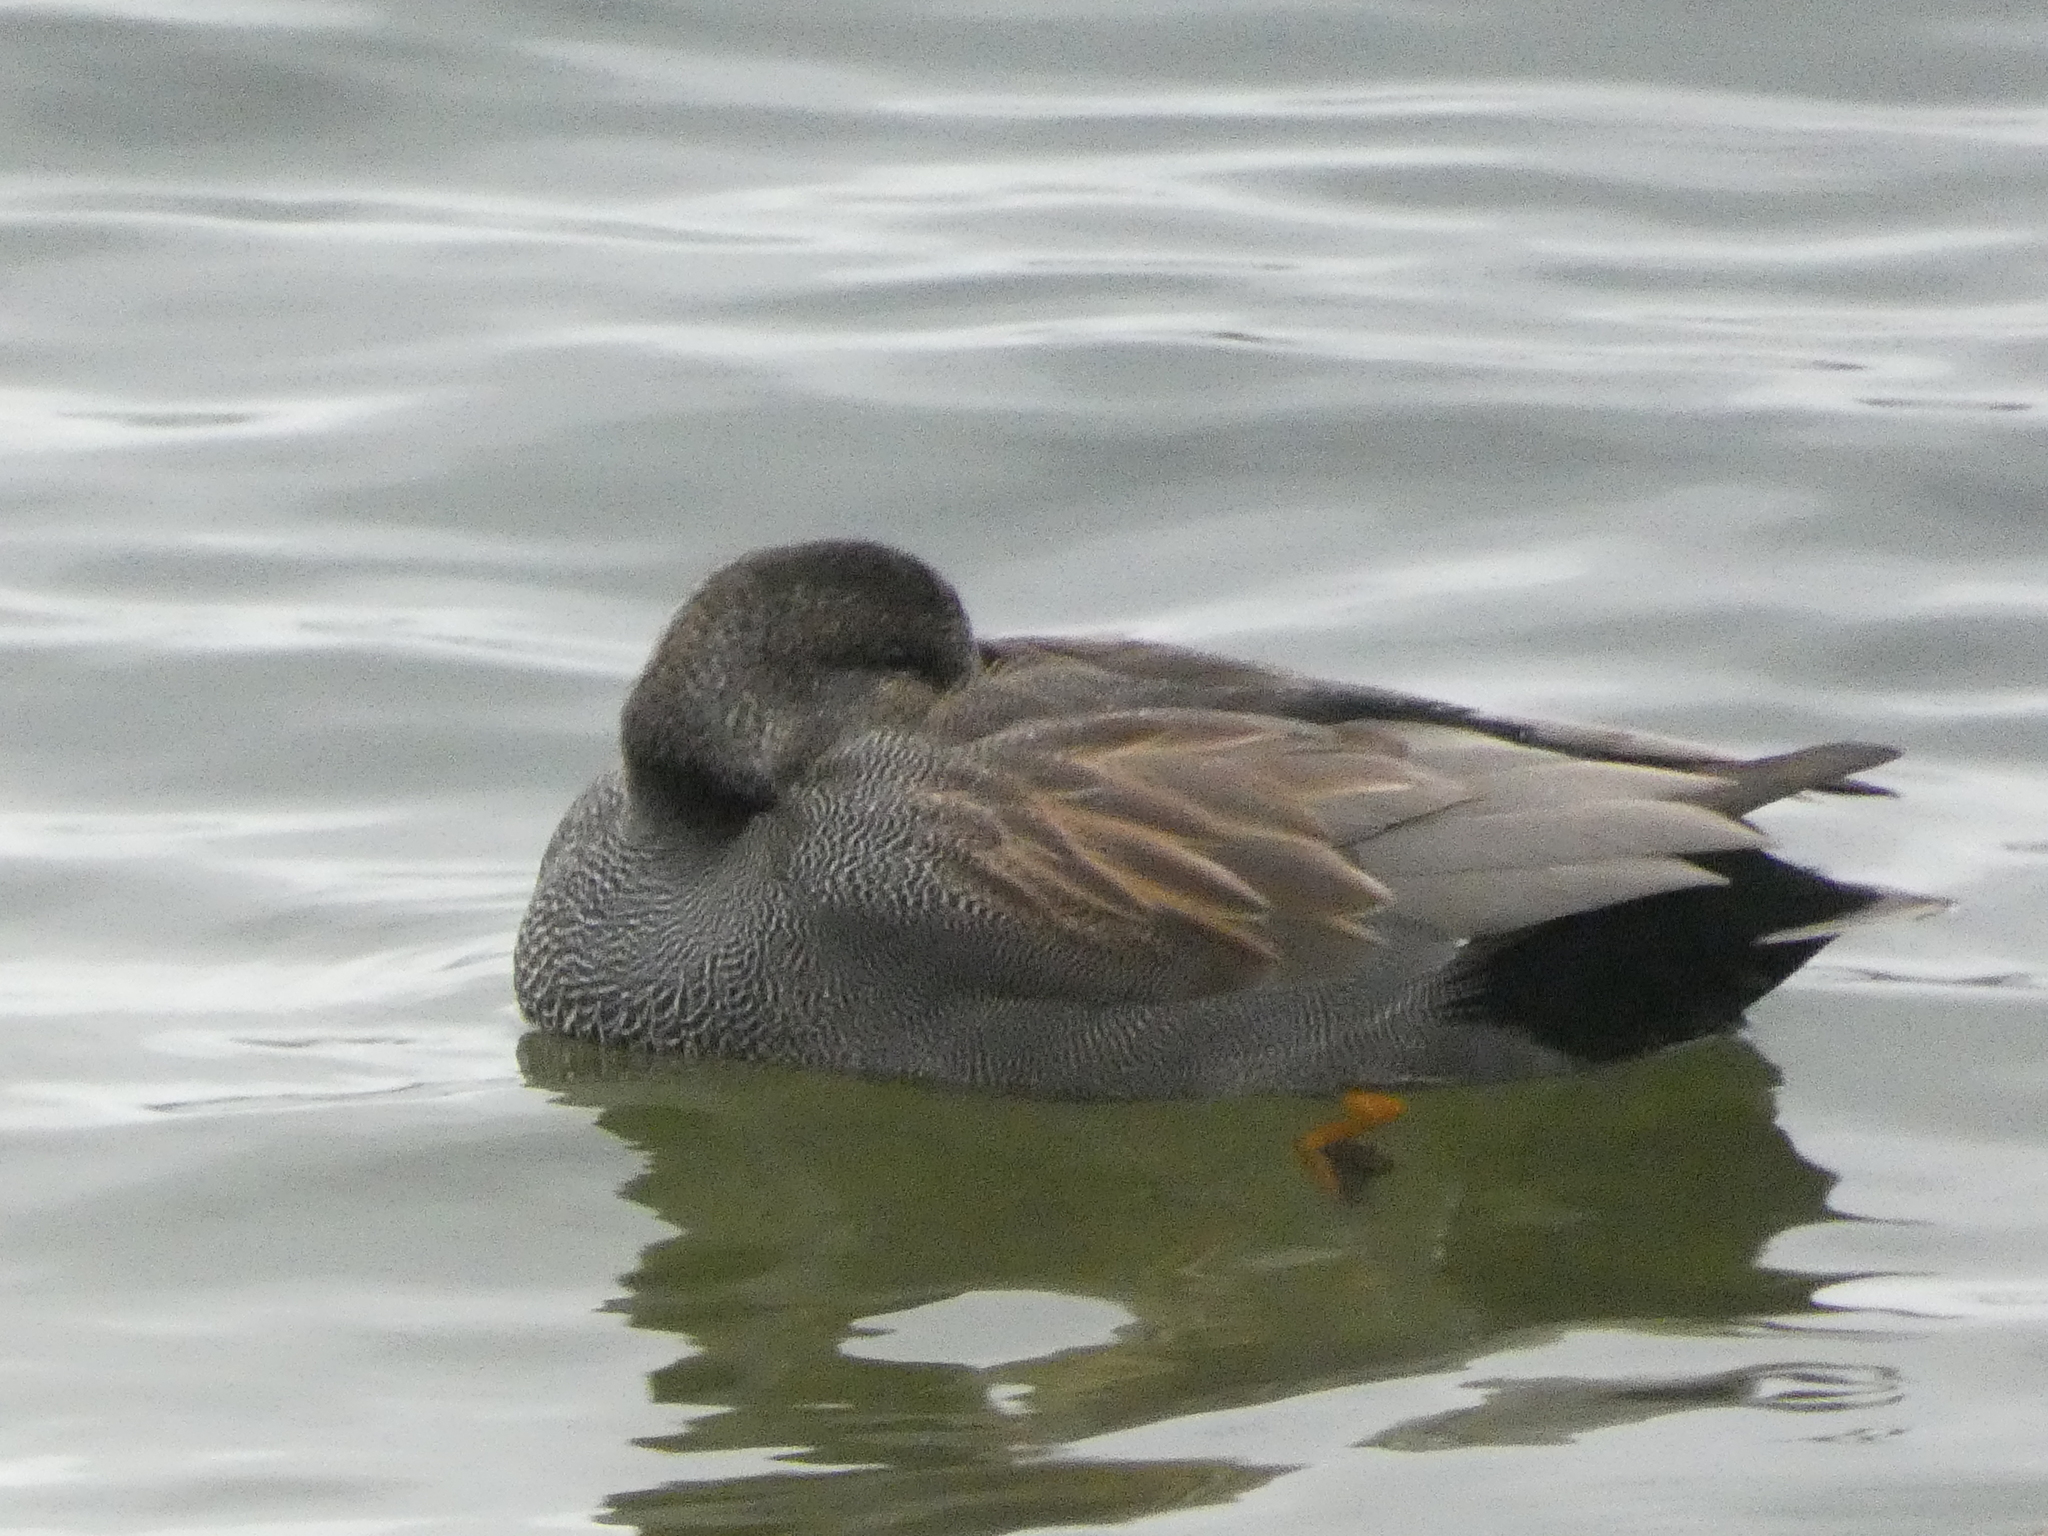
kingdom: Animalia
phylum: Chordata
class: Aves
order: Anseriformes
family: Anatidae
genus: Mareca
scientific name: Mareca strepera
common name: Gadwall
